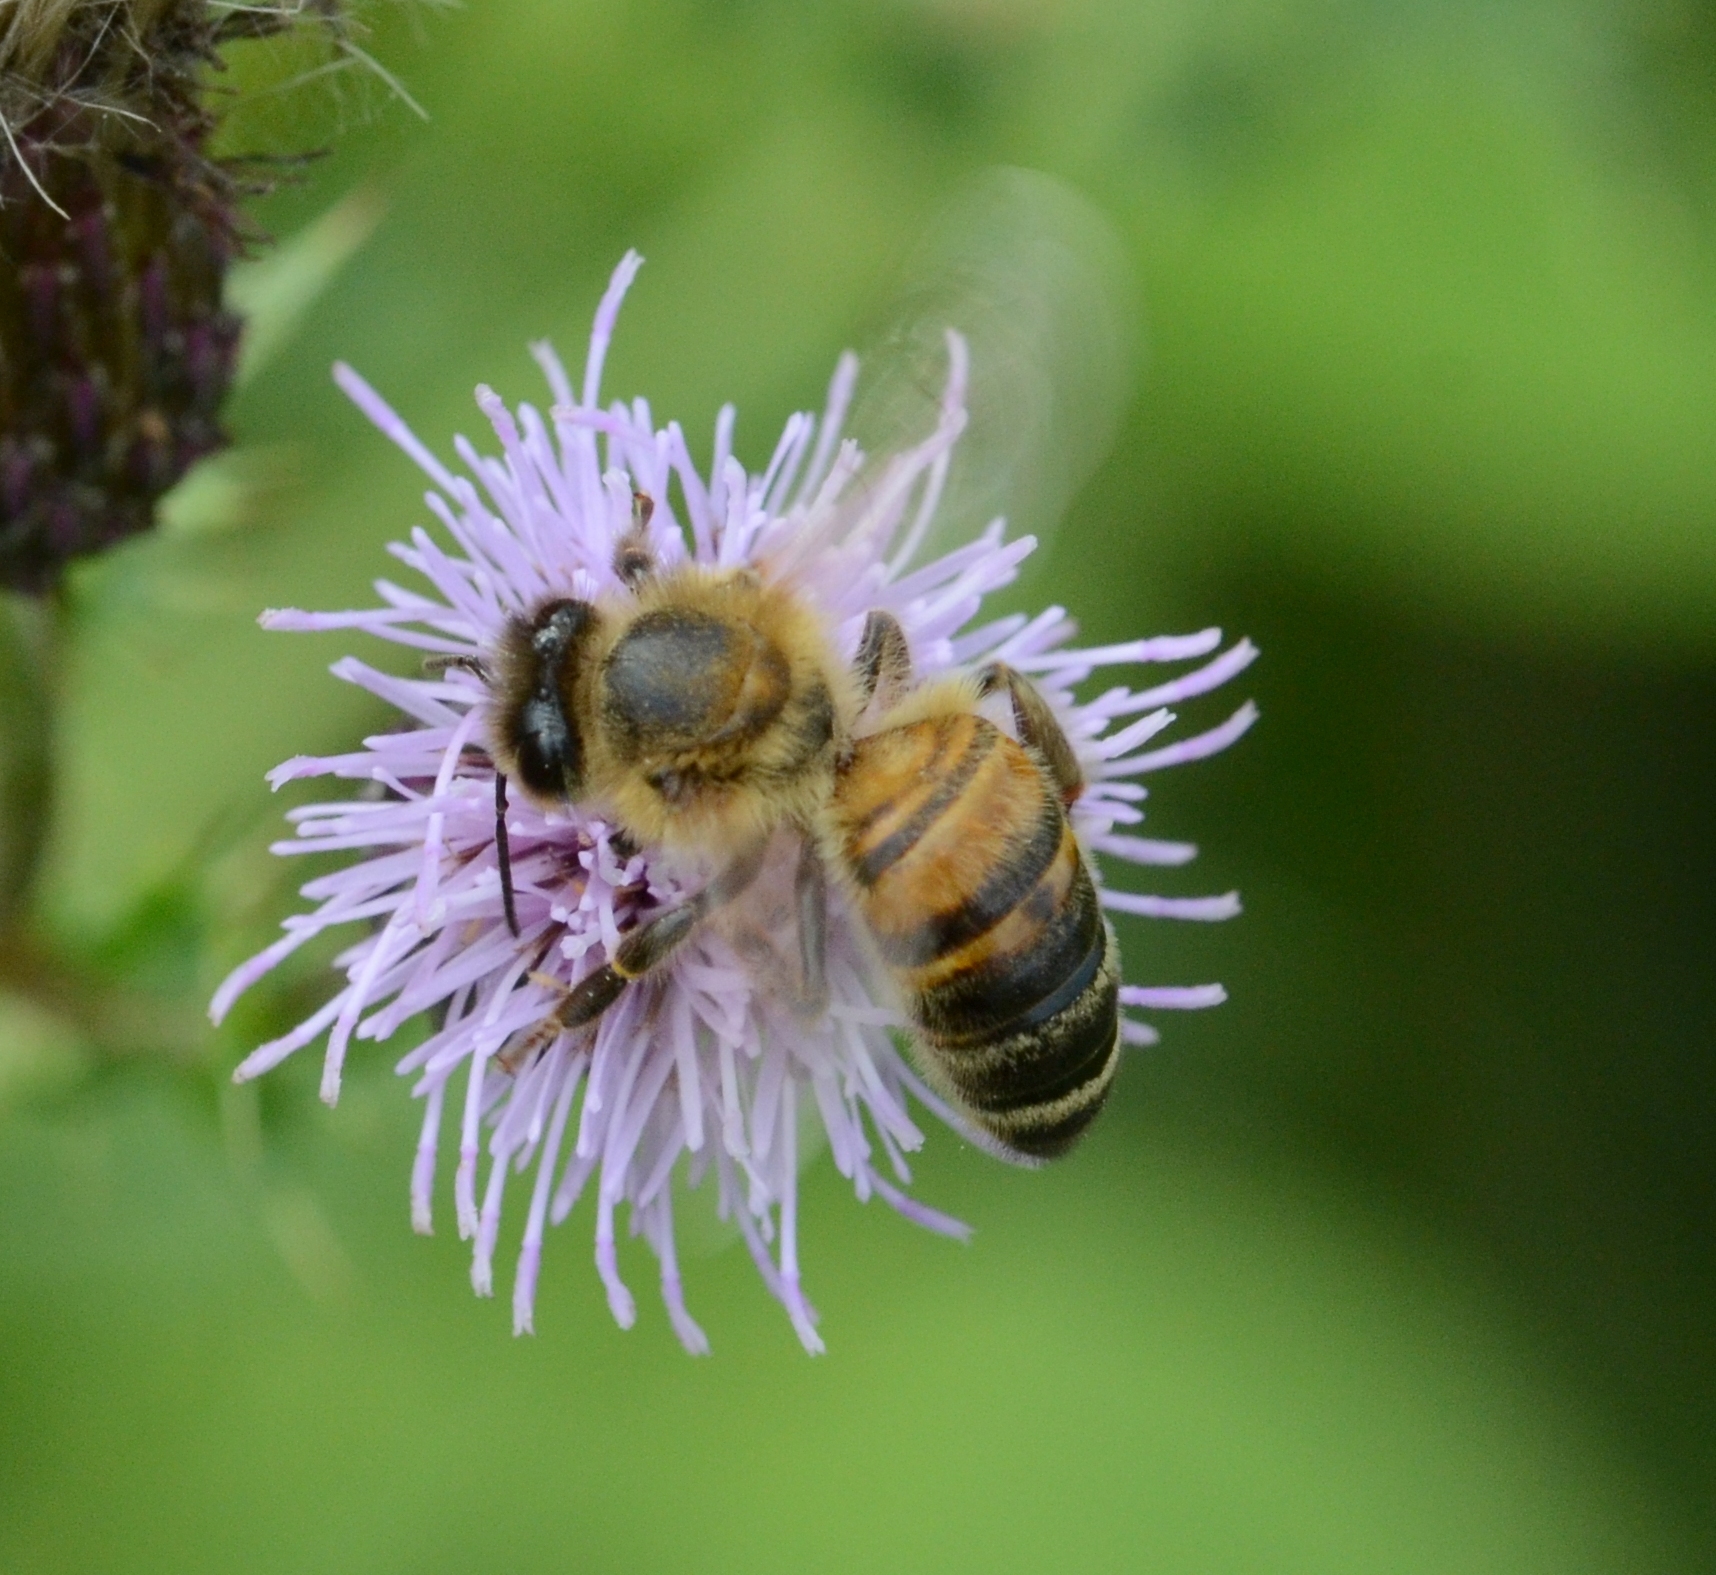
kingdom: Animalia
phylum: Arthropoda
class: Insecta
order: Hymenoptera
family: Apidae
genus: Apis
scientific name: Apis mellifera
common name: Honey bee
